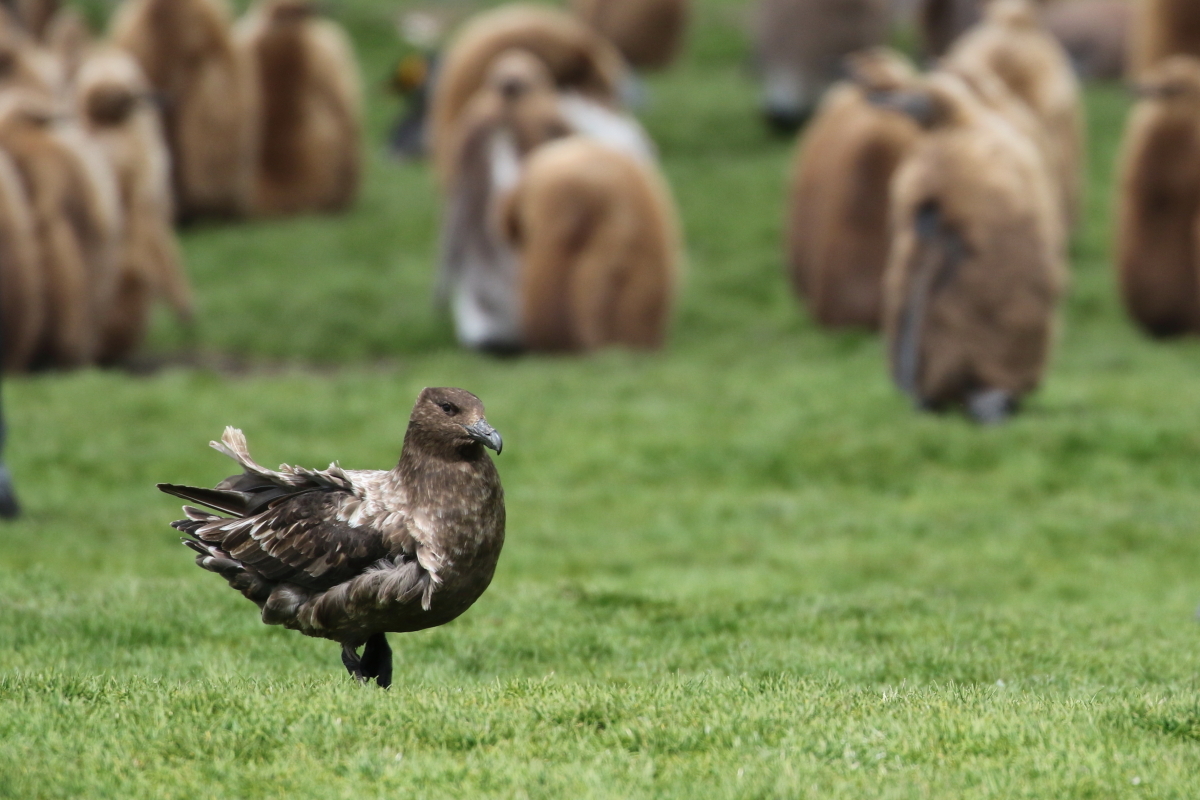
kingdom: Animalia
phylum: Chordata
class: Aves
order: Charadriiformes
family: Stercorariidae
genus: Stercorarius
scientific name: Stercorarius antarcticus
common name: Brown skua
